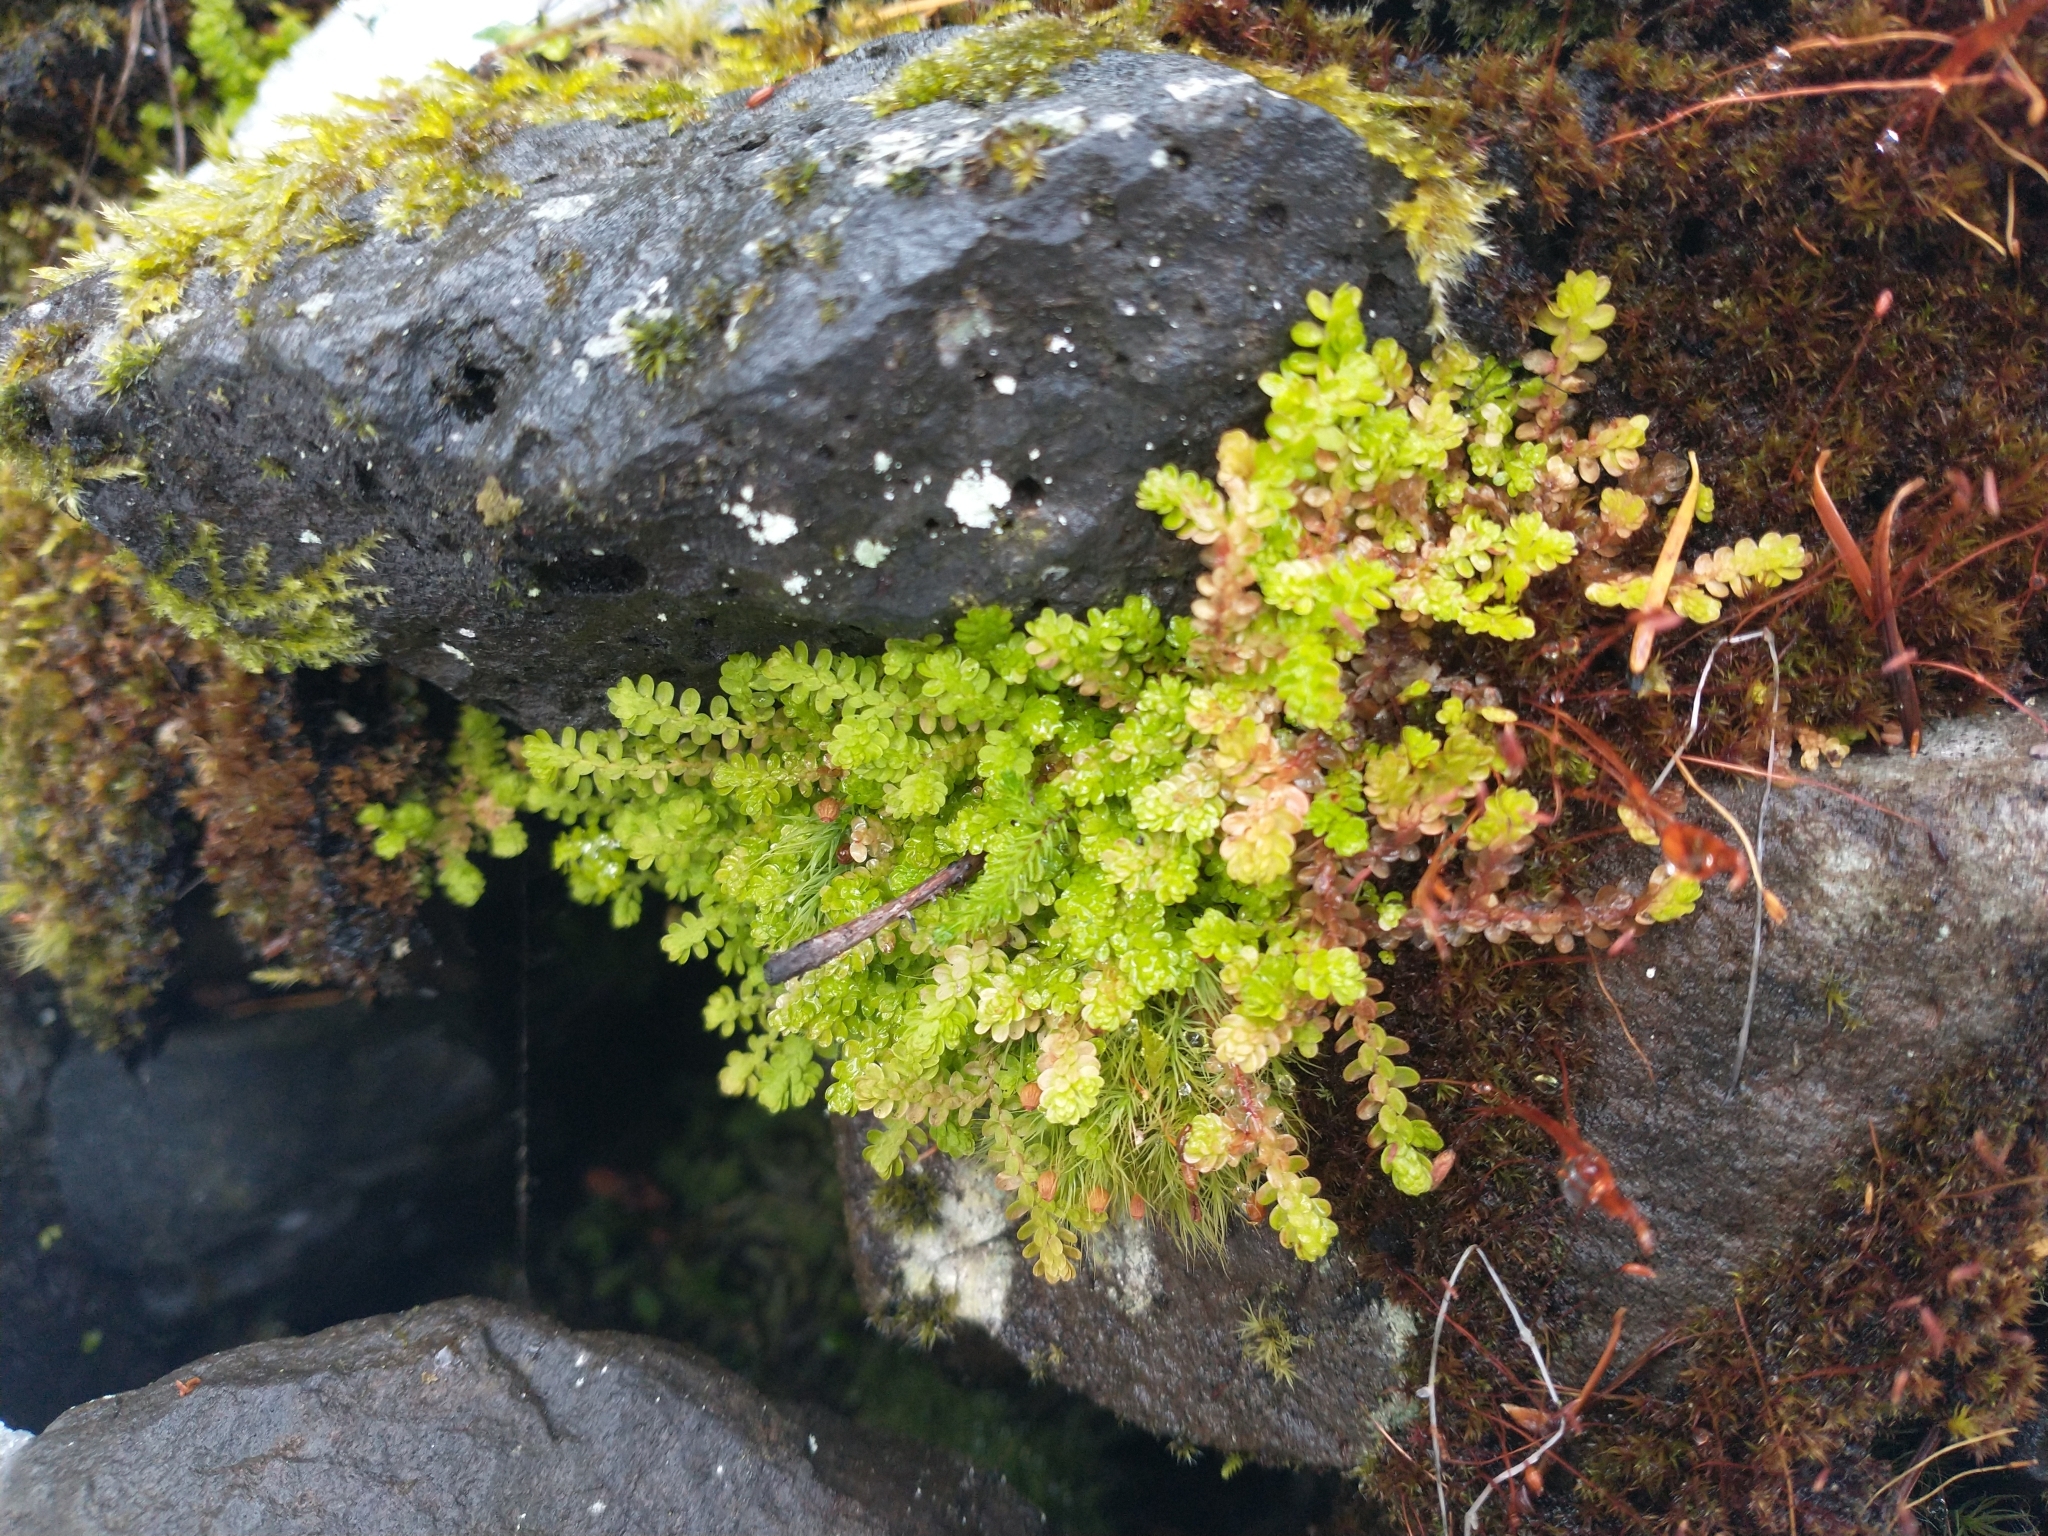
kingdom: Plantae
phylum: Tracheophyta
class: Lycopodiopsida
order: Selaginellales
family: Selaginellaceae
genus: Selaginella
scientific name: Selaginella douglasii
